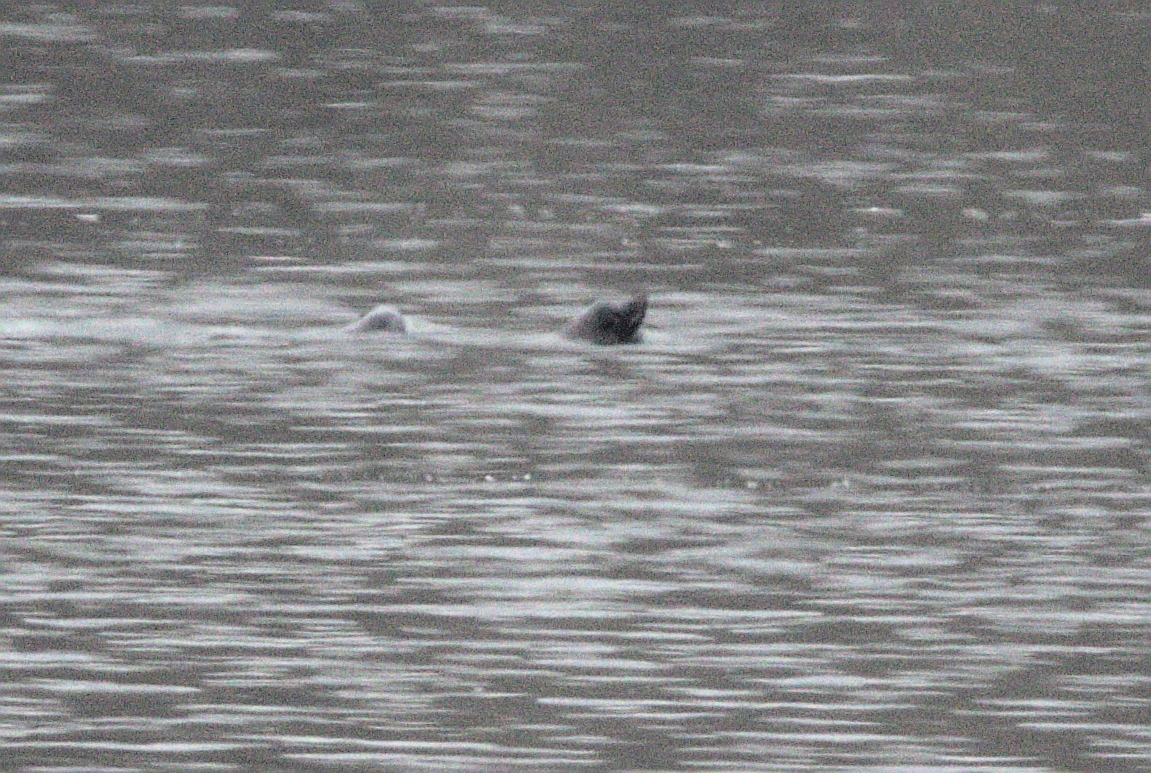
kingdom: Animalia
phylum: Chordata
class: Mammalia
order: Carnivora
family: Otariidae
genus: Zalophus
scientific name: Zalophus californianus
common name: California sea lion
